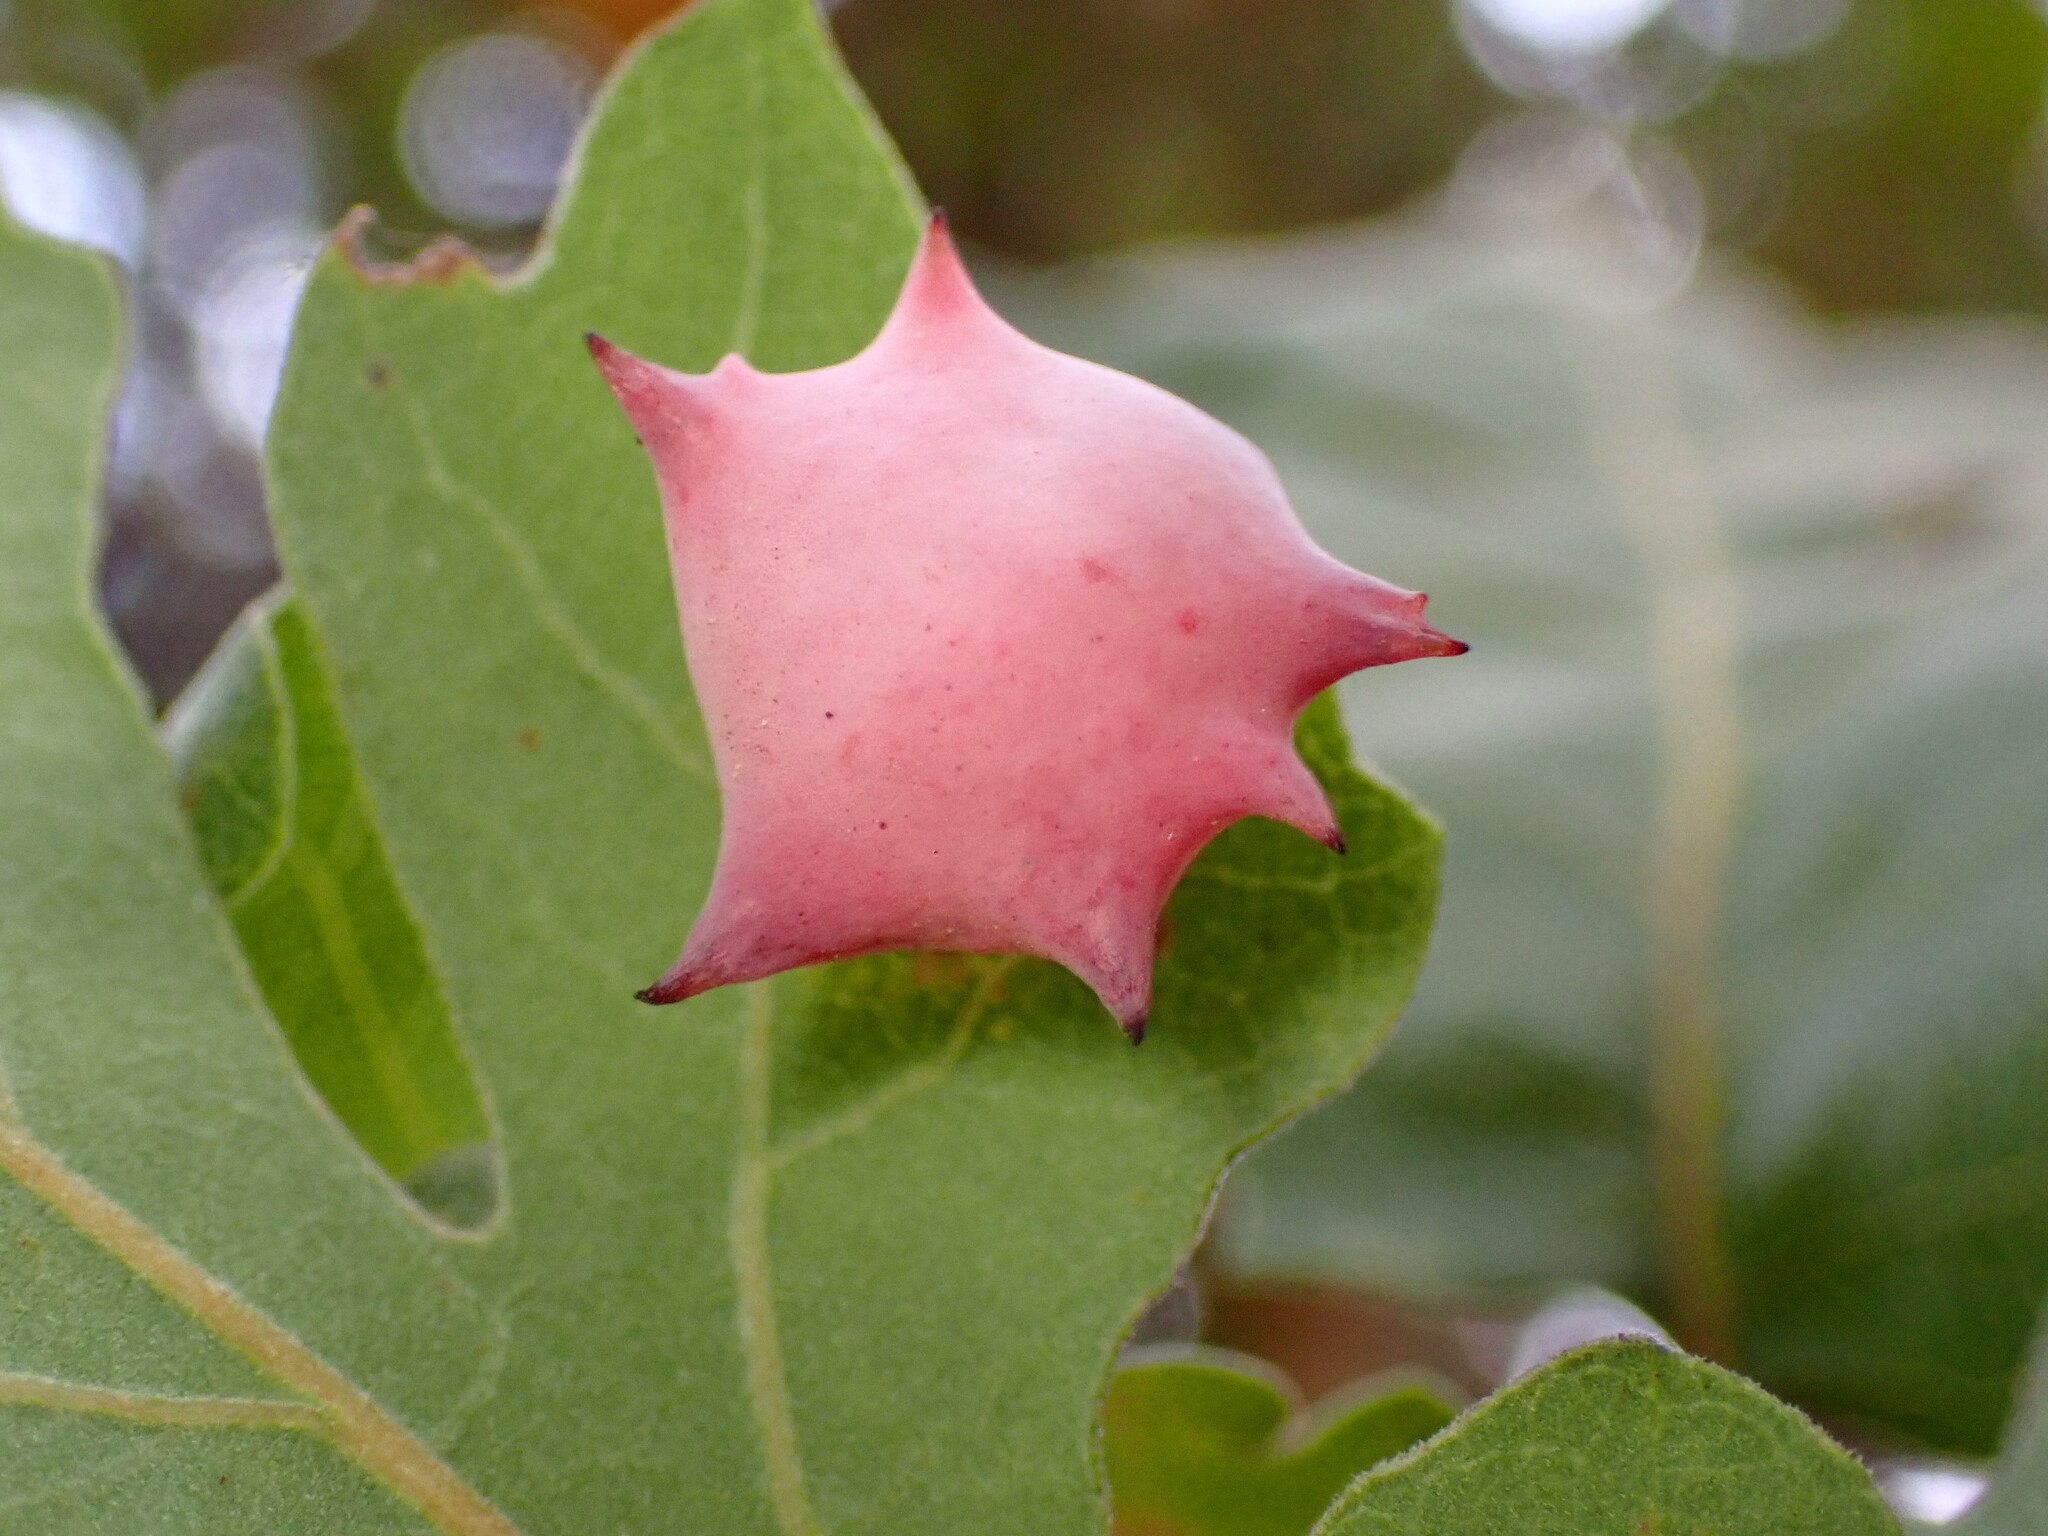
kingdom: Animalia
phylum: Arthropoda
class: Insecta
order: Hymenoptera
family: Cynipidae
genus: Cynips
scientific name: Cynips douglasi
